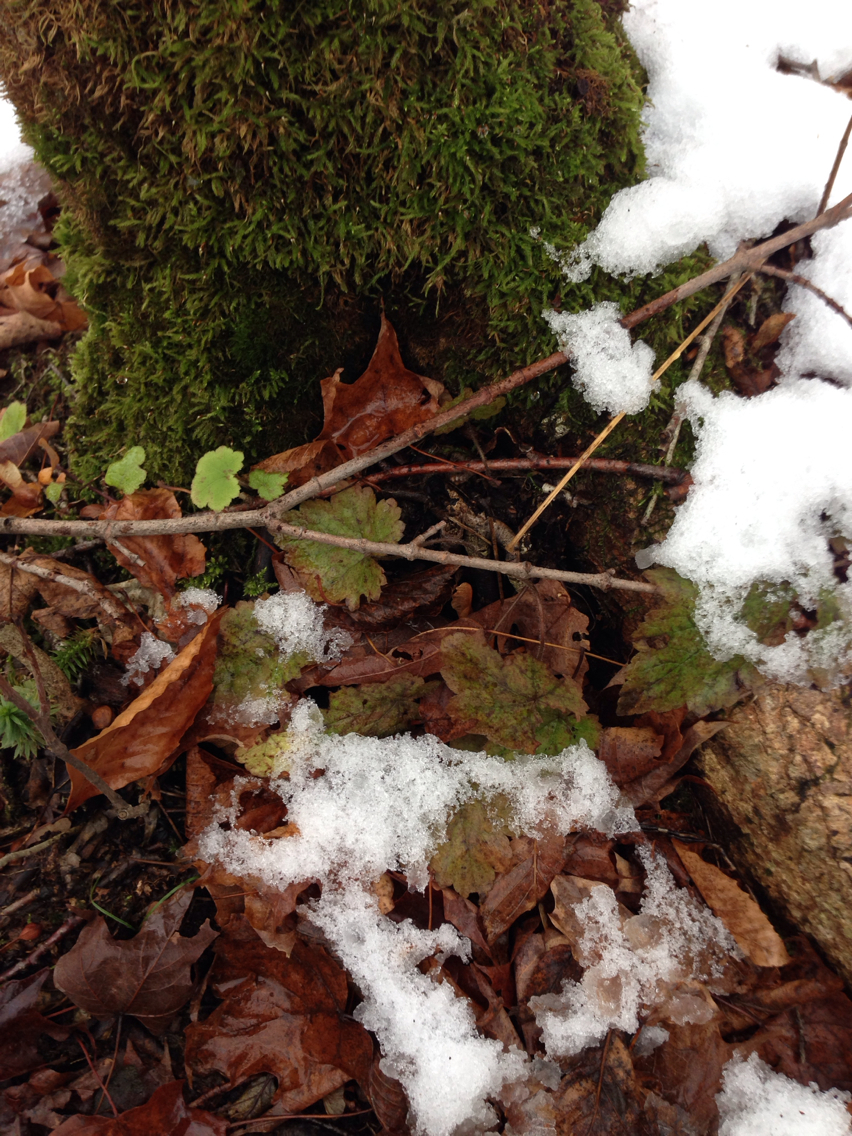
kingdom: Plantae
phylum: Tracheophyta
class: Magnoliopsida
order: Saxifragales
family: Saxifragaceae
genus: Tiarella
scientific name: Tiarella stolonifera
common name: Stoloniferous foamflower
